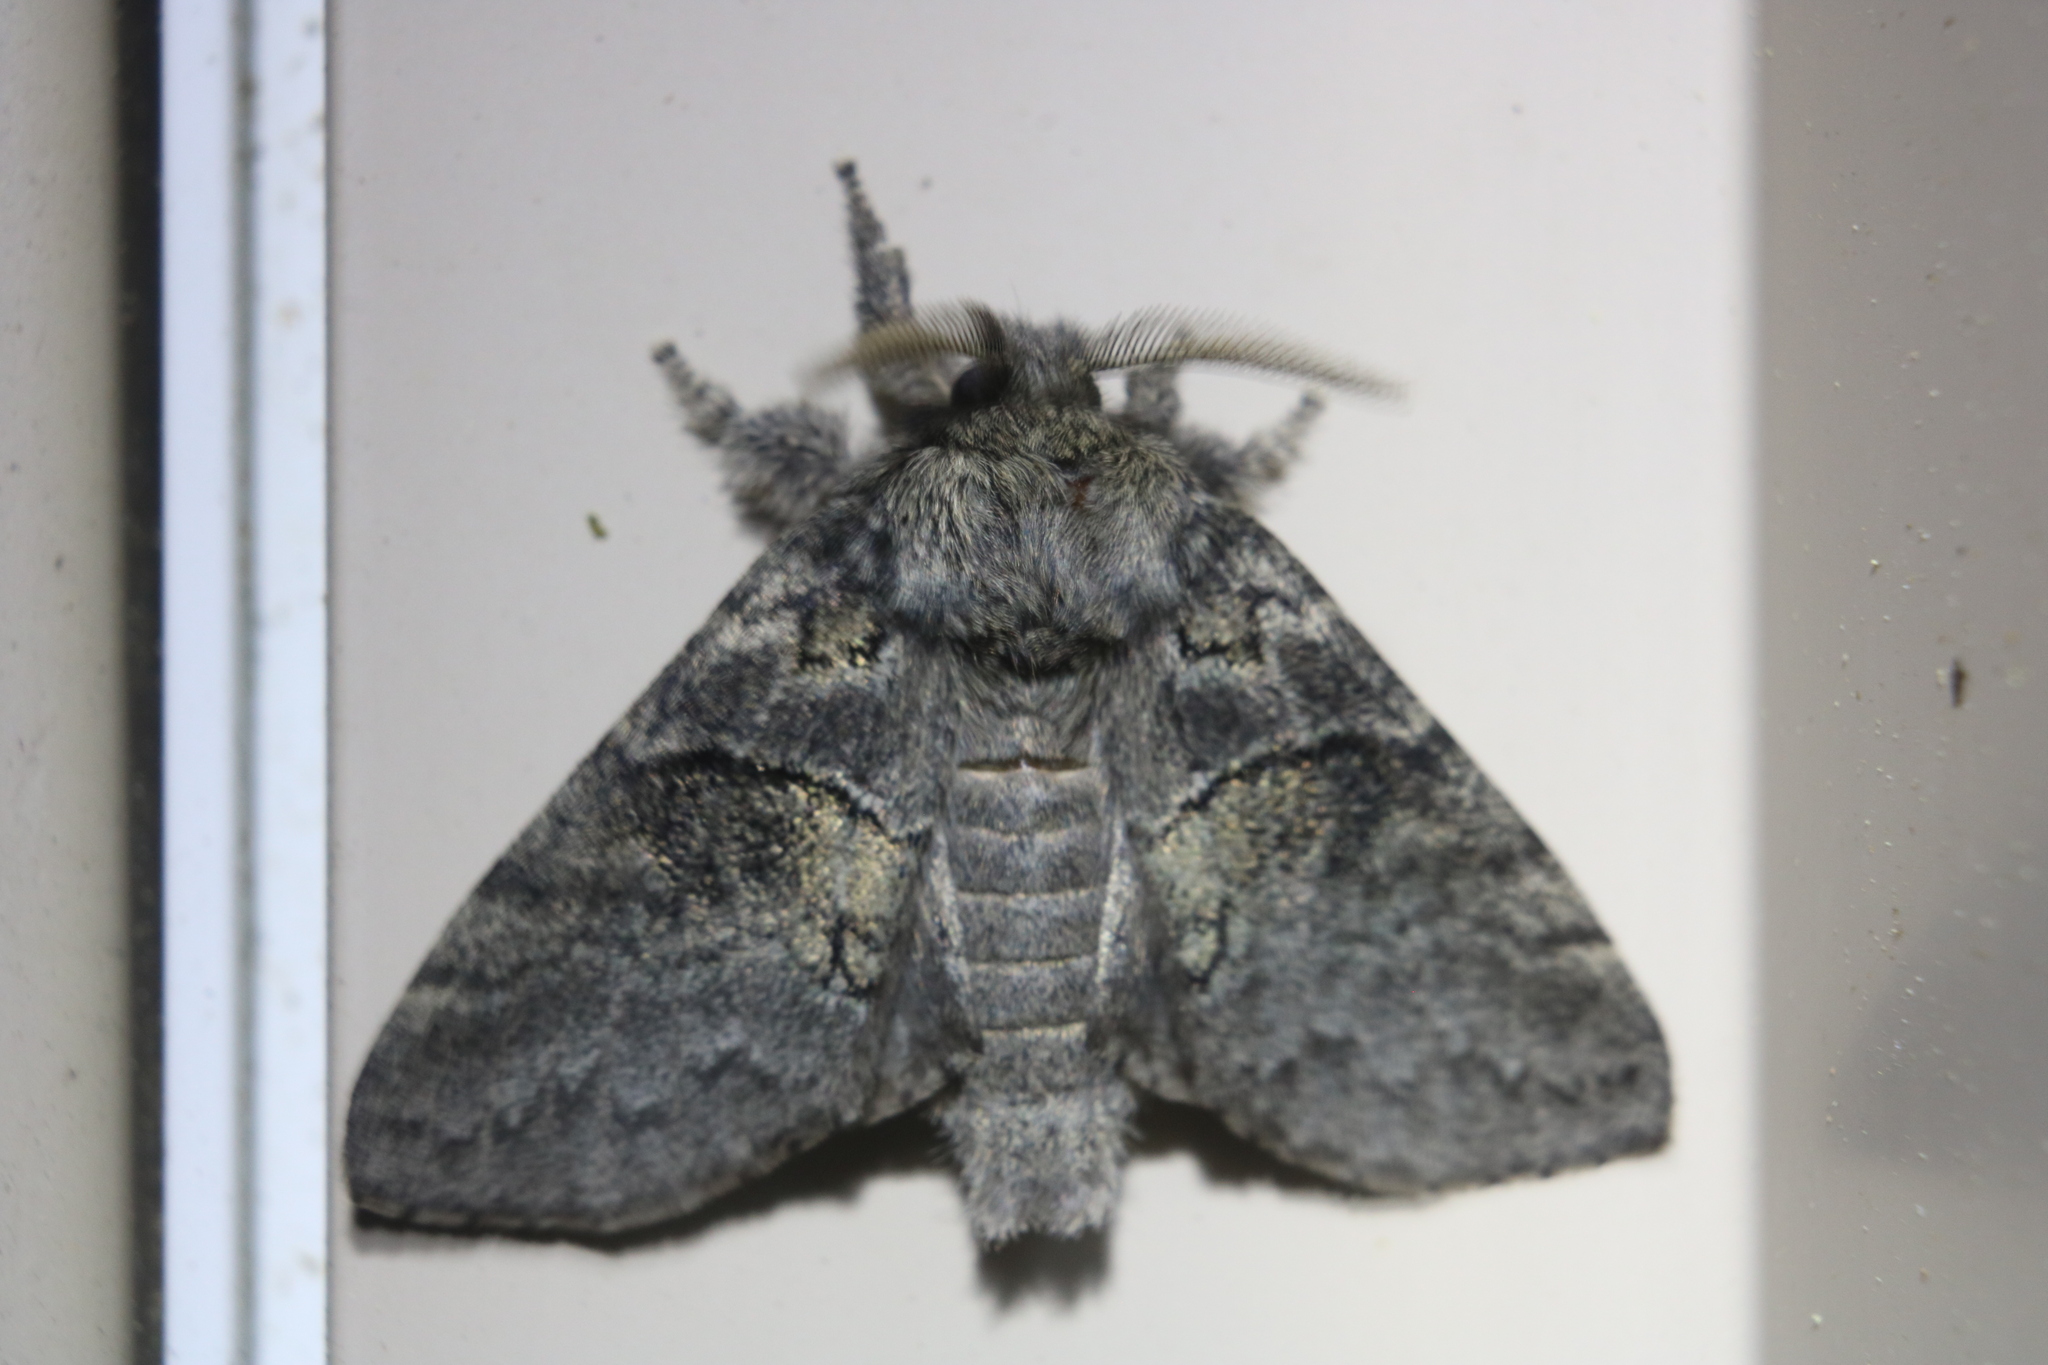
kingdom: Animalia
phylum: Arthropoda
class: Insecta
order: Lepidoptera
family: Notodontidae
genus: Gluphisia
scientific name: Gluphisia septentrionis
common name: Common gluphisia
